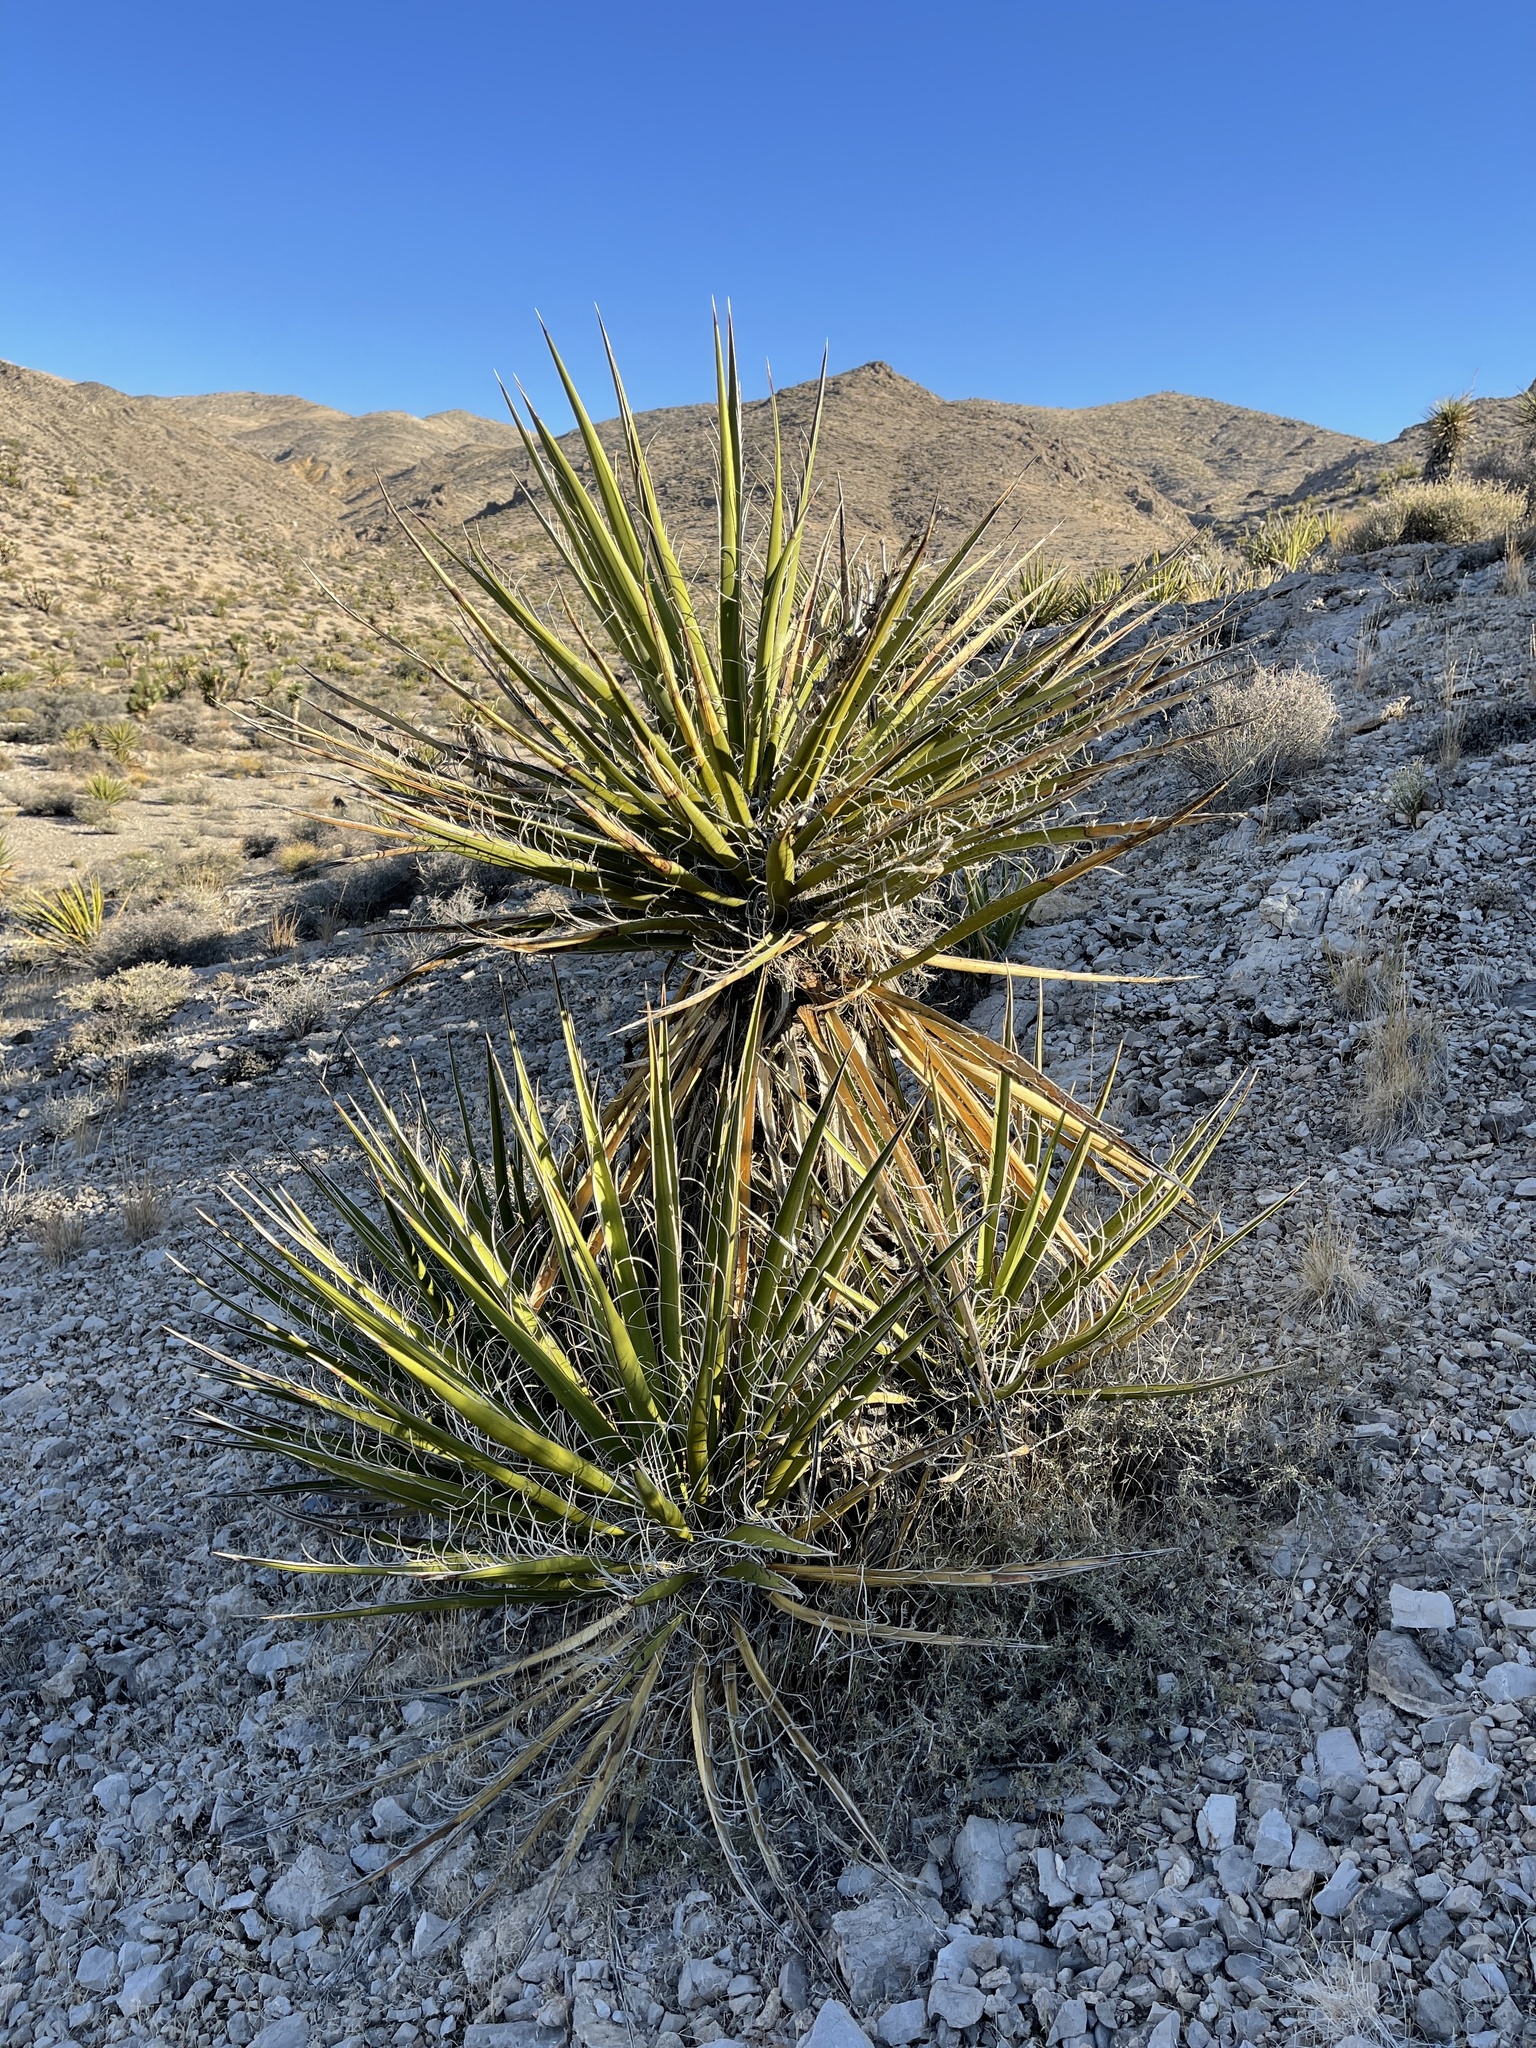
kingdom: Plantae
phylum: Tracheophyta
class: Liliopsida
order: Asparagales
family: Asparagaceae
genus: Yucca
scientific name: Yucca schidigera
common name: Mojave yucca
